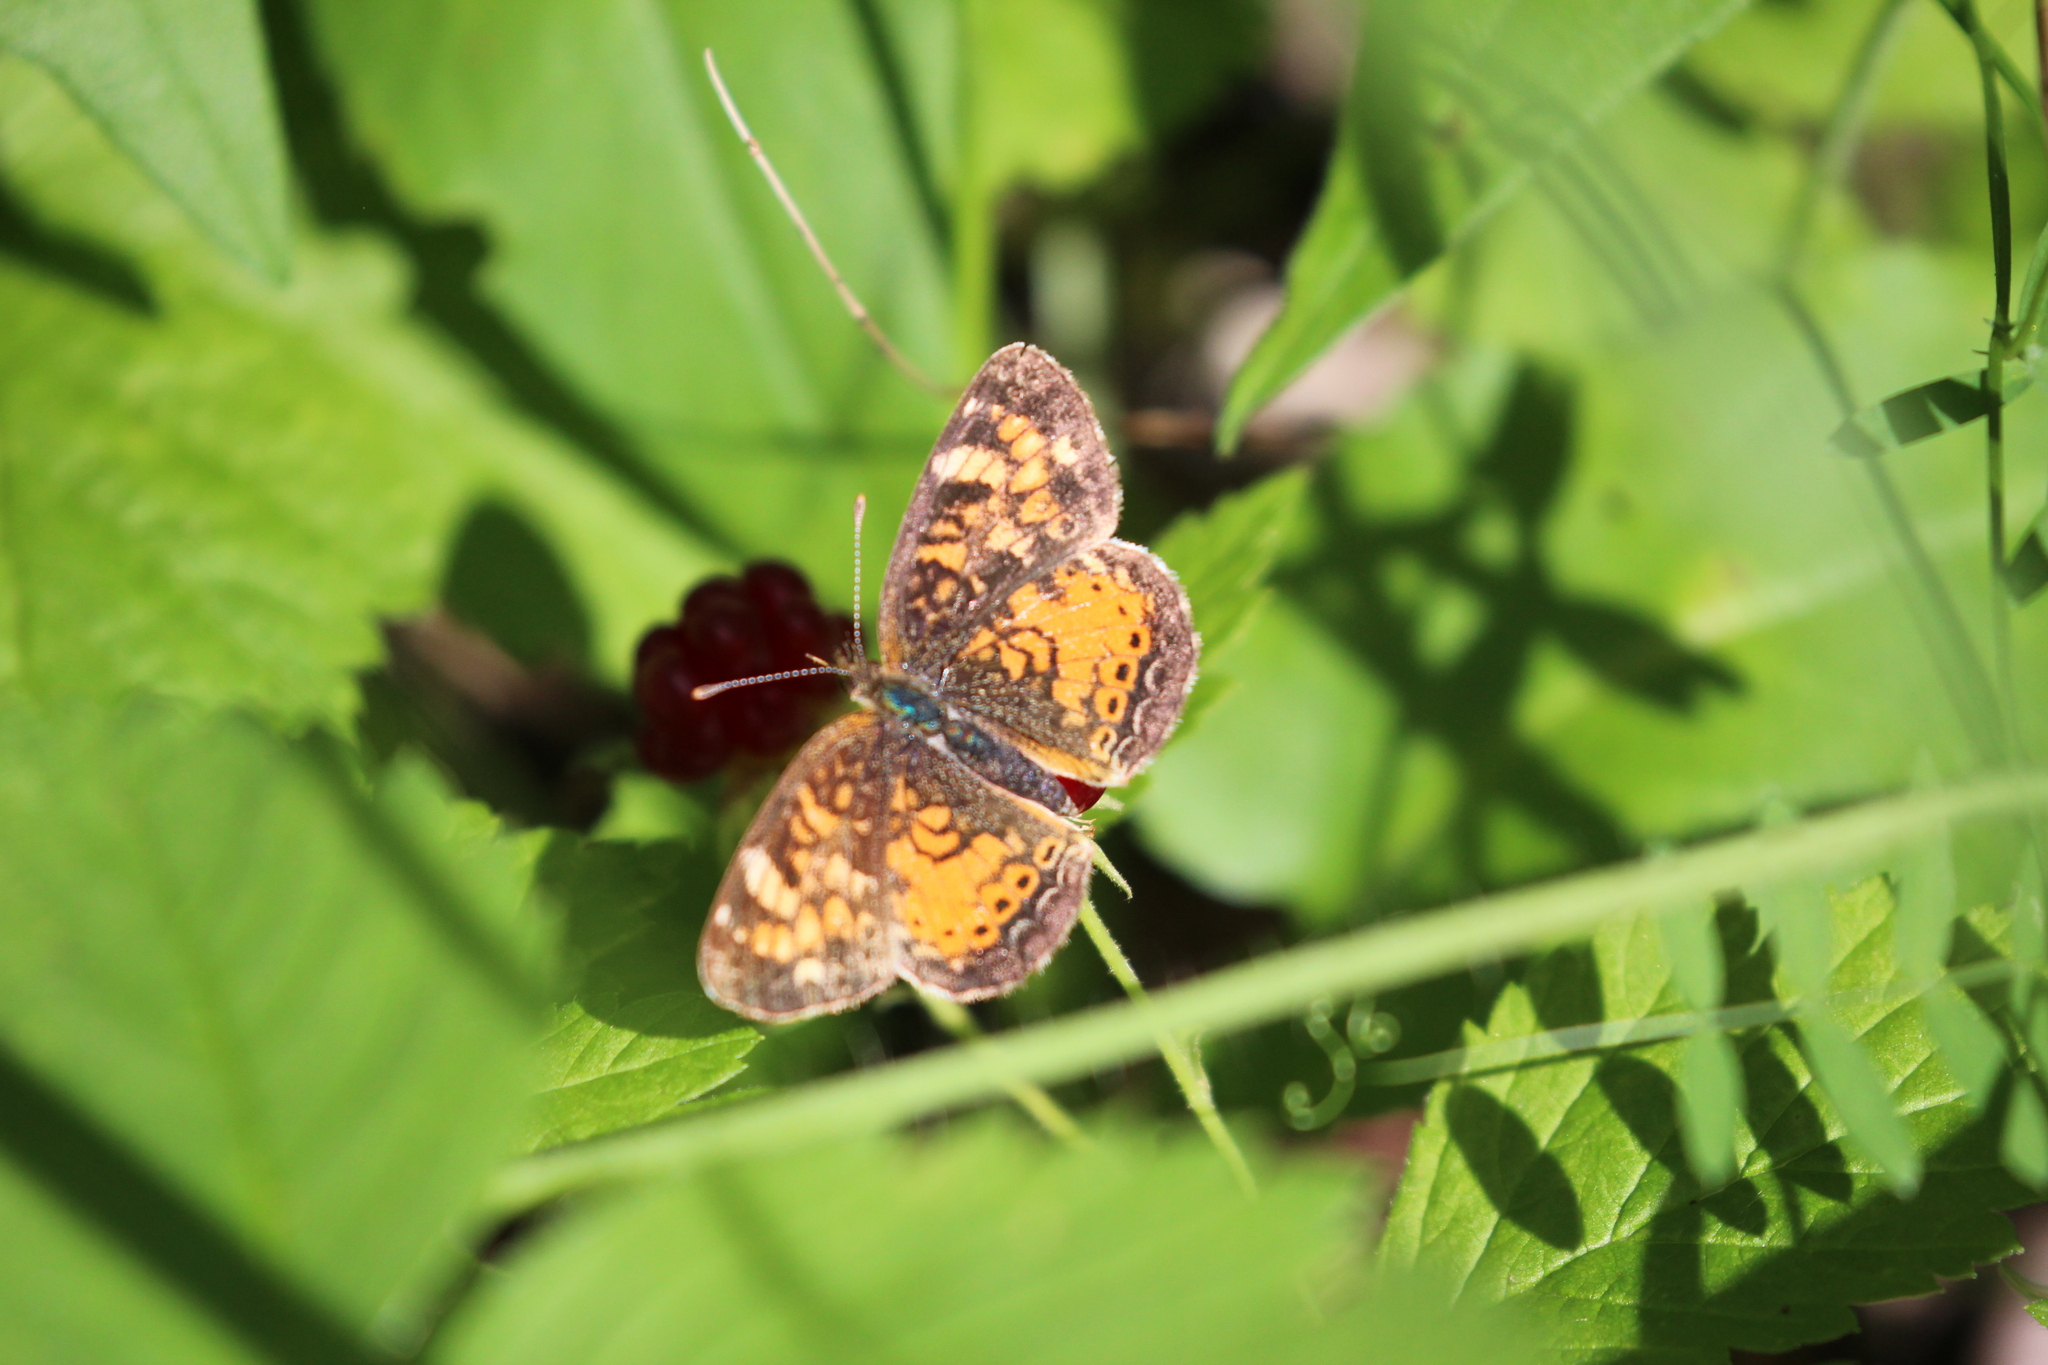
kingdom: Animalia
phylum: Arthropoda
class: Insecta
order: Lepidoptera
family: Nymphalidae
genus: Phyciodes
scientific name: Phyciodes tharos
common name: Pearl crescent
